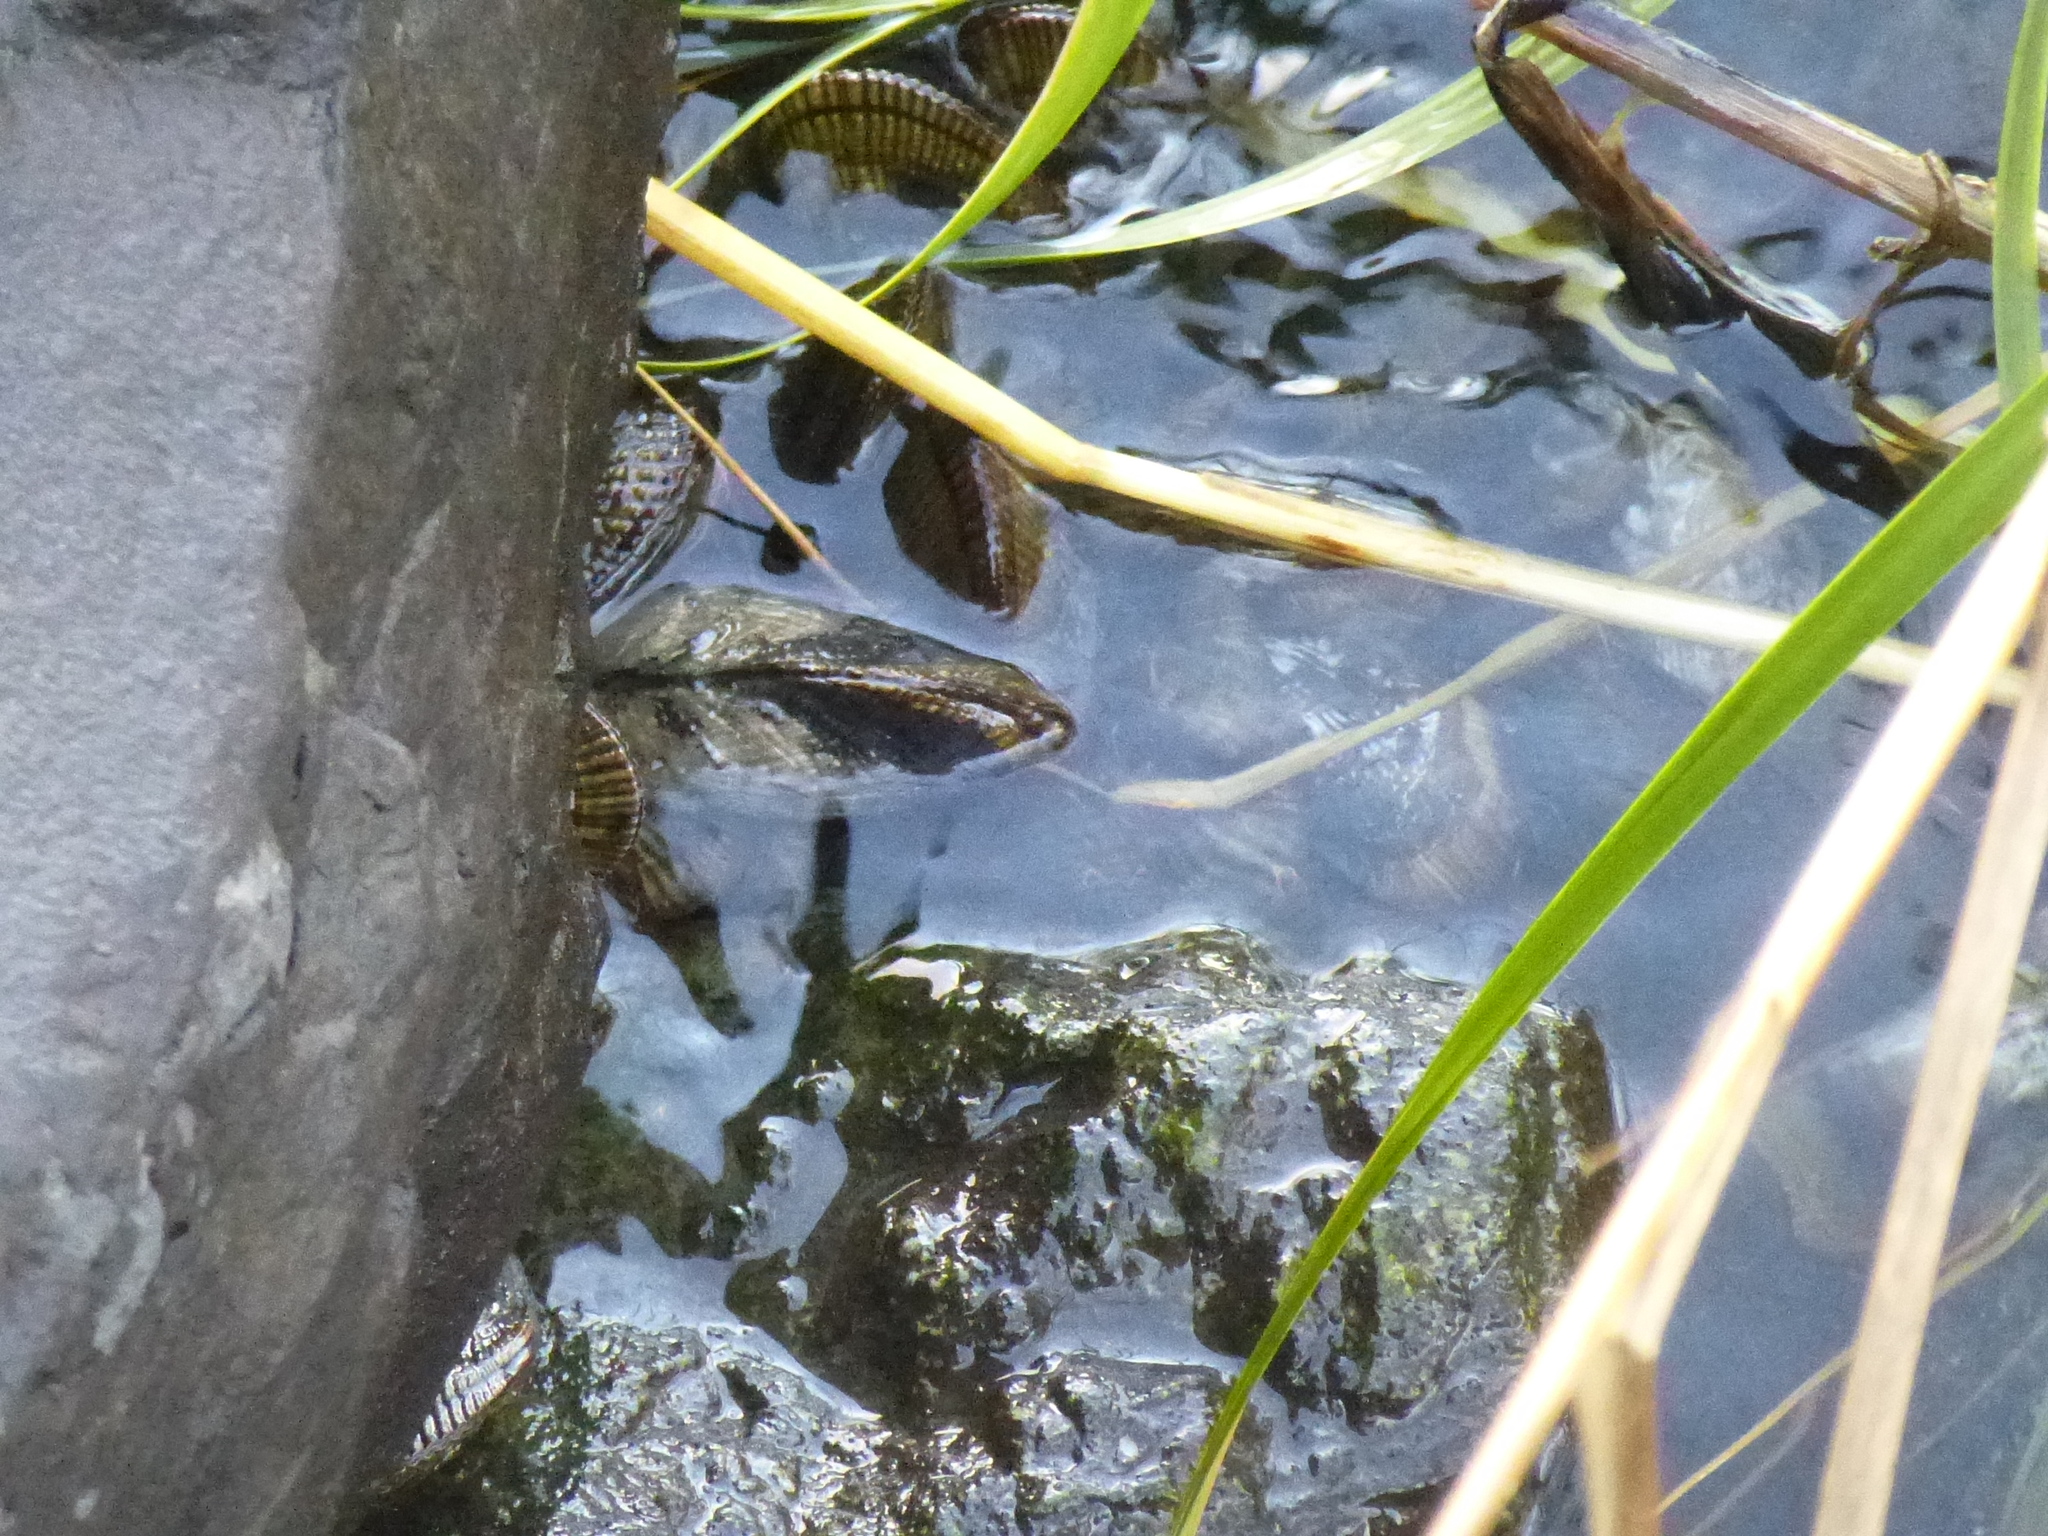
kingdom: Animalia
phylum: Mollusca
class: Bivalvia
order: Mytilida
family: Mytilidae
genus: Geukensia
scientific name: Geukensia demissa
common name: Ribbed mussel
